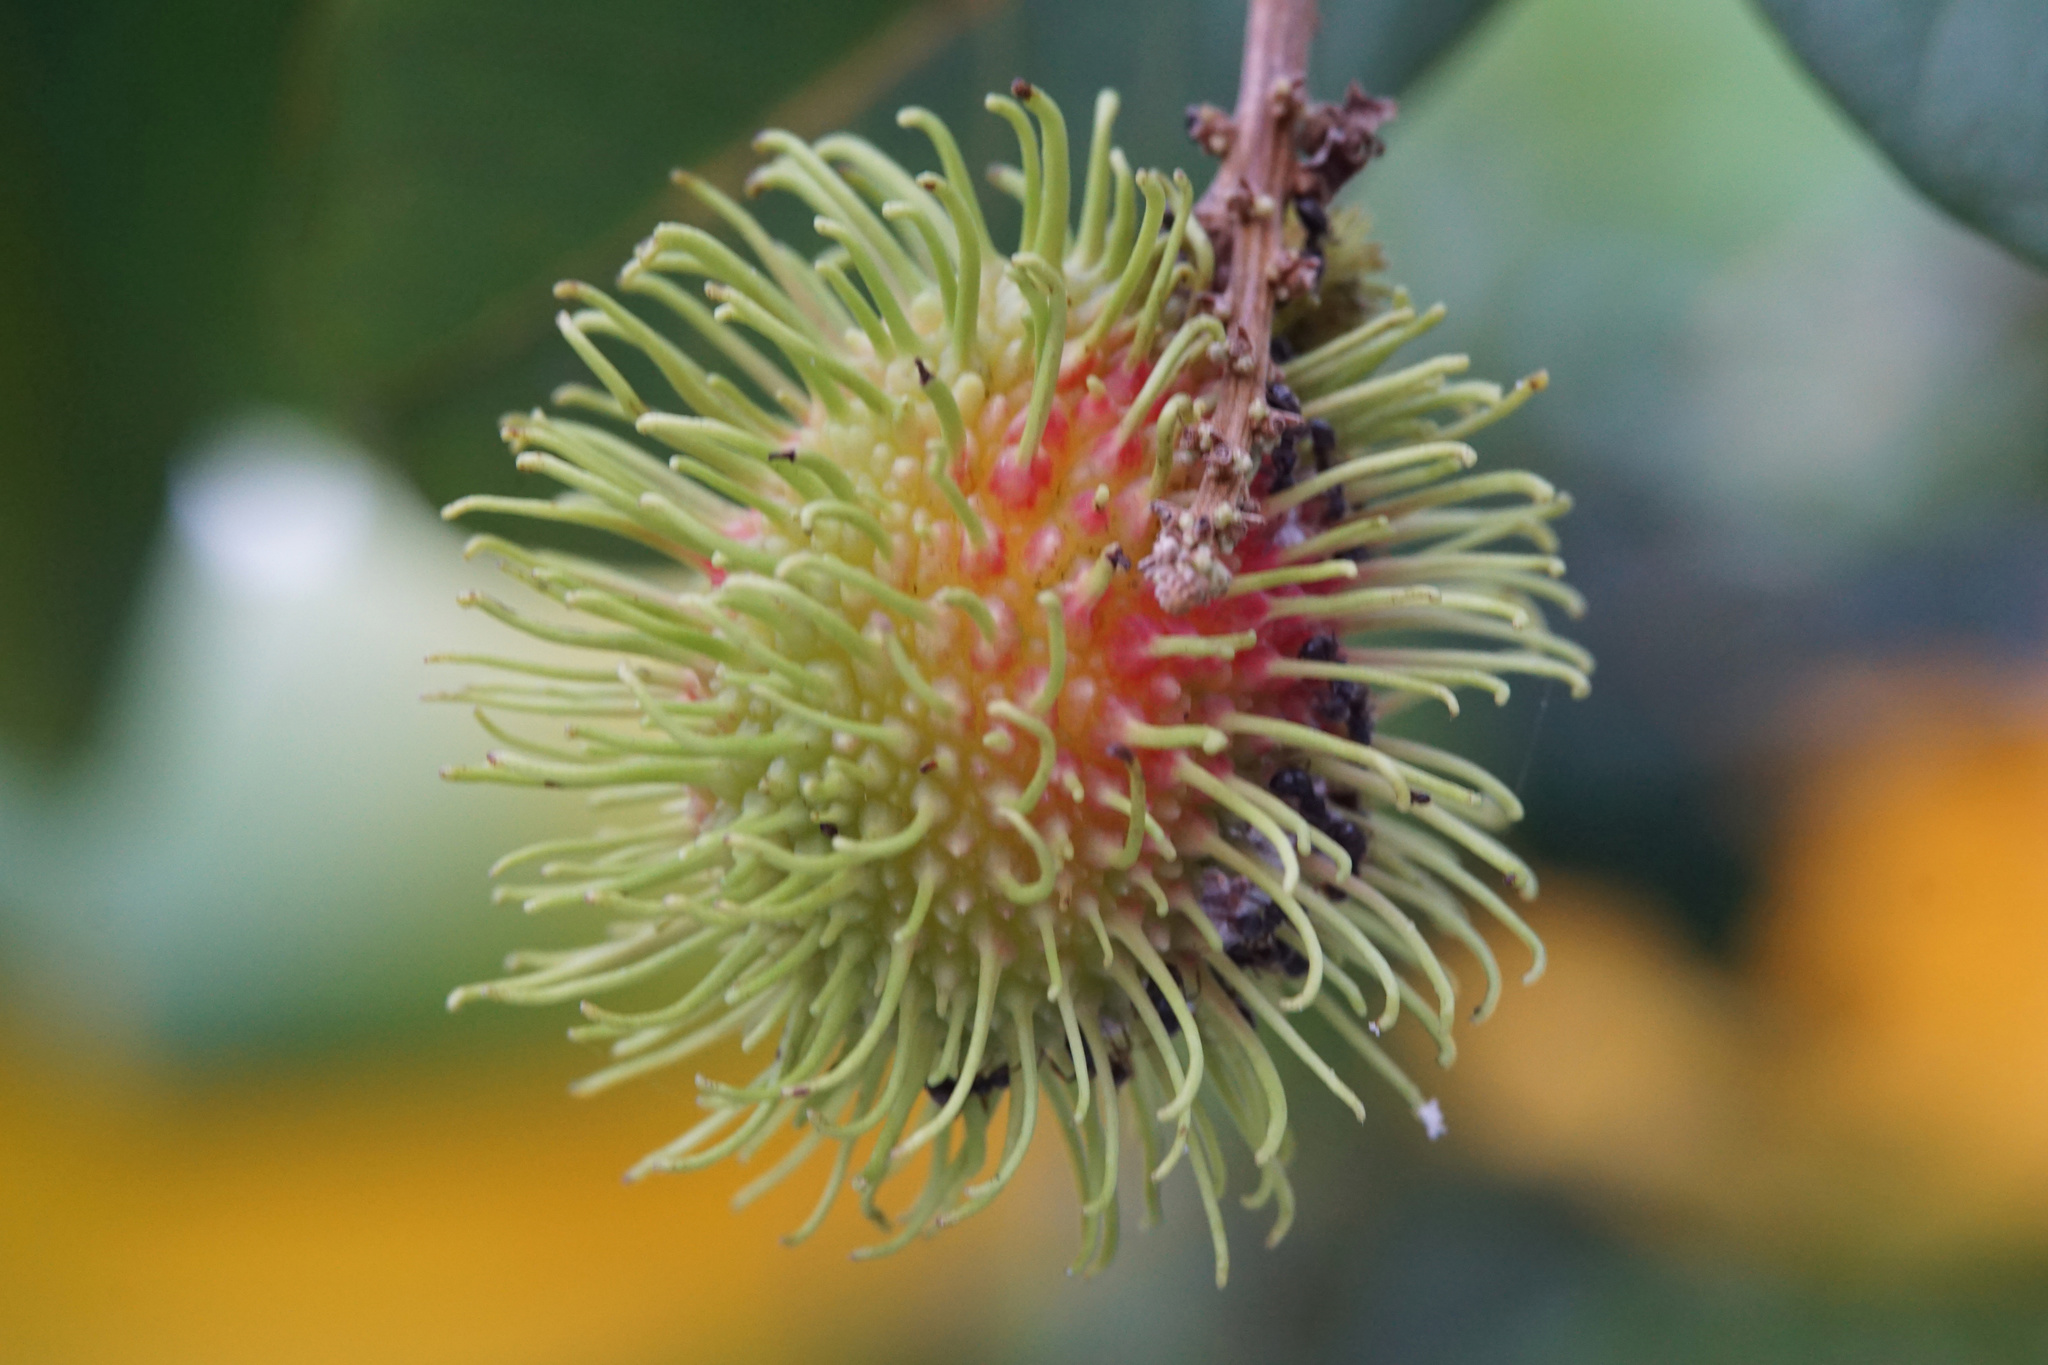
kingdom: Plantae
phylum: Tracheophyta
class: Magnoliopsida
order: Sapindales
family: Sapindaceae
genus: Nephelium
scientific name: Nephelium lappaceum
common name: Rambutan
